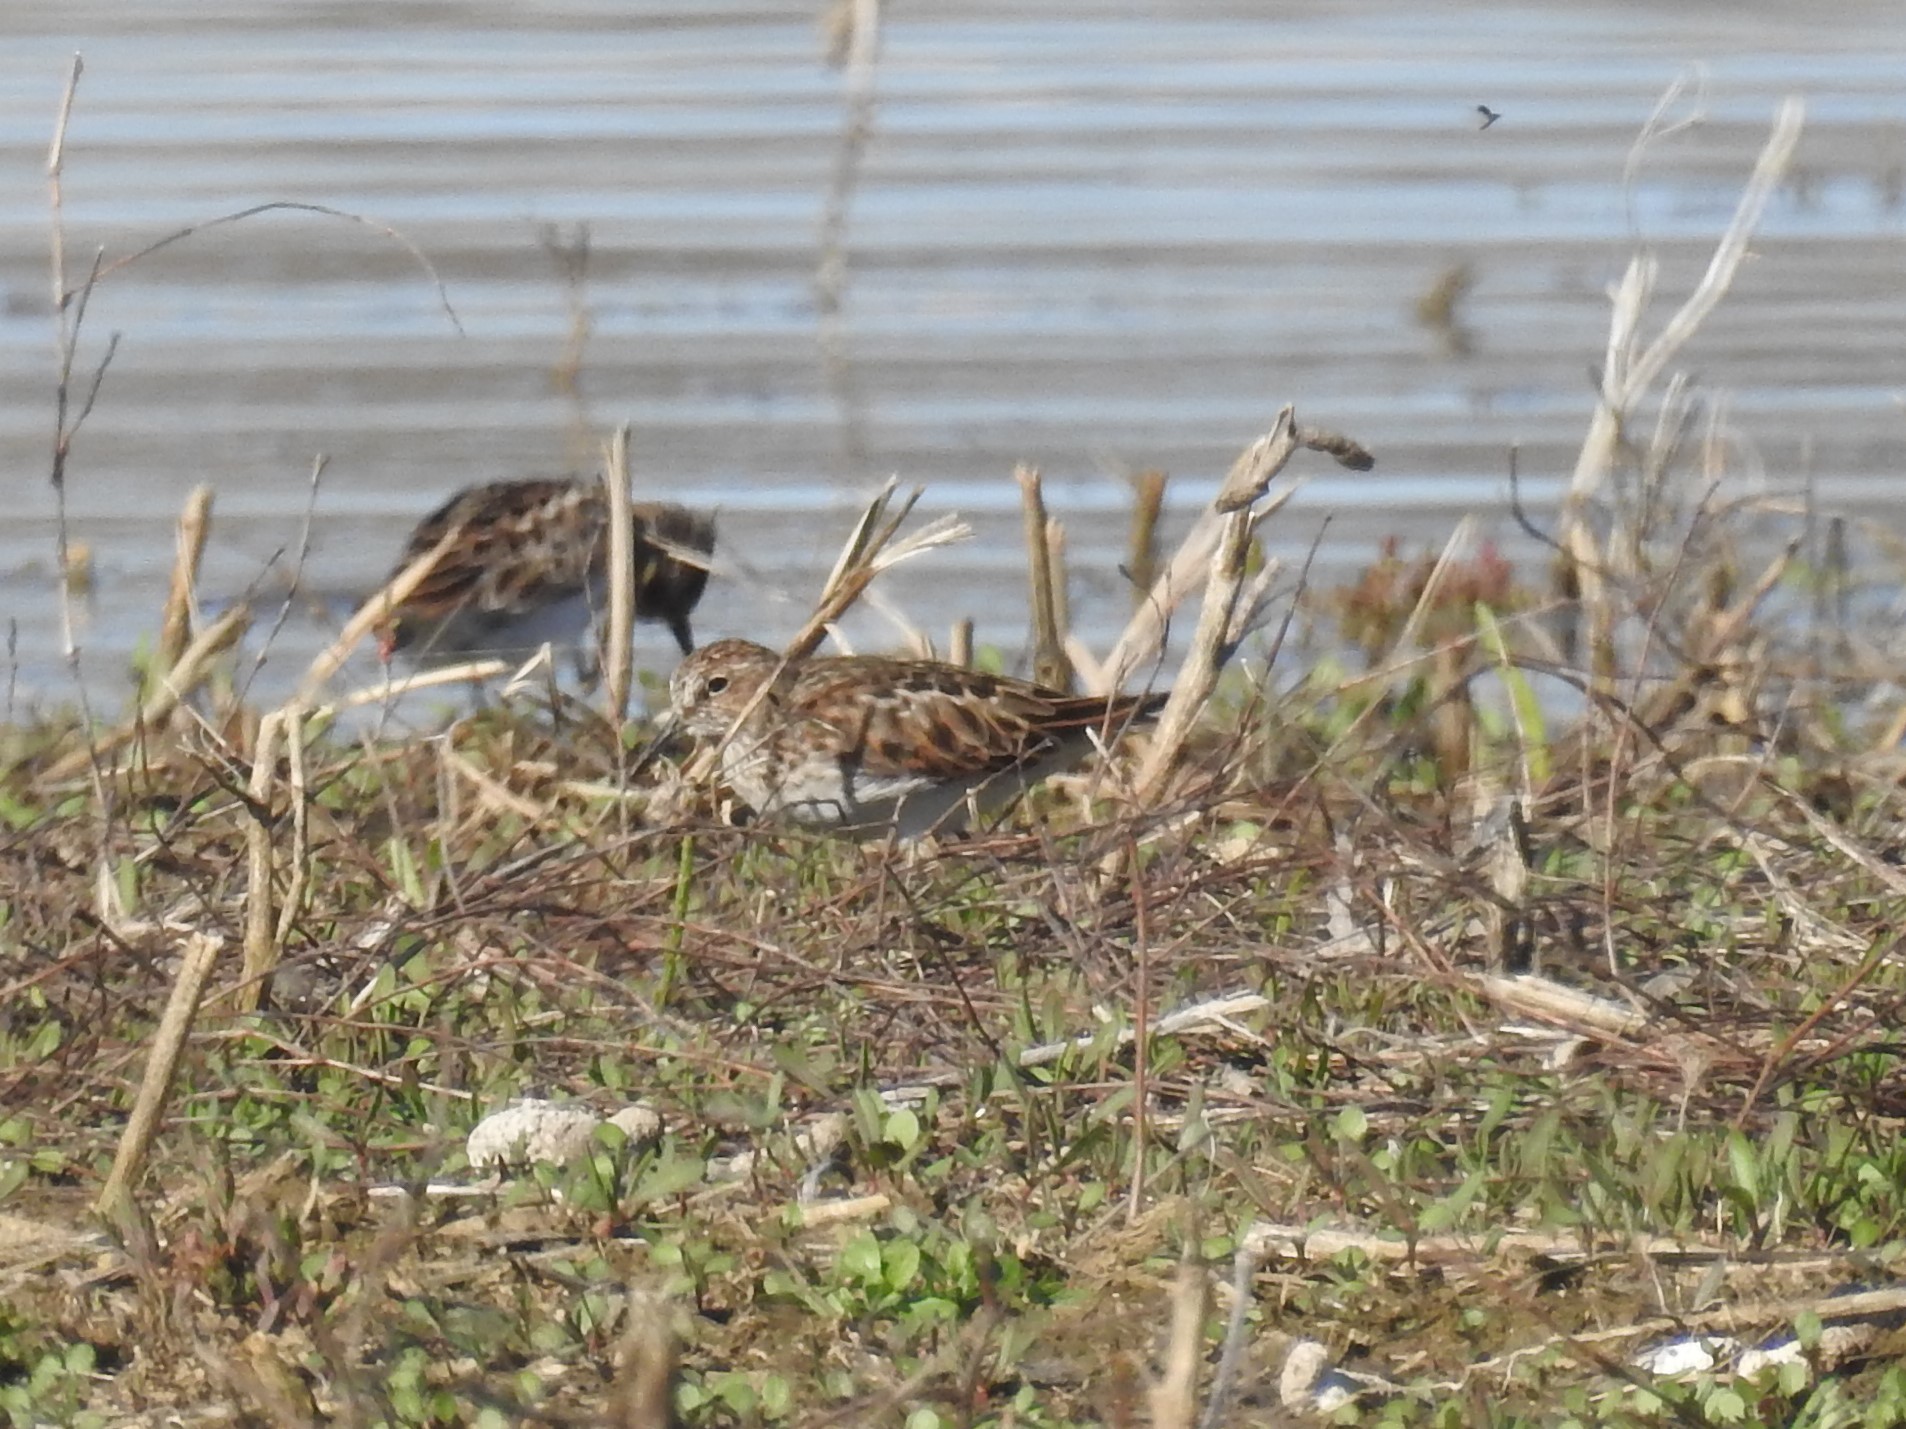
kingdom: Animalia
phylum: Chordata
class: Aves
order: Charadriiformes
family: Scolopacidae
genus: Calidris
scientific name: Calidris minutilla
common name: Least sandpiper
